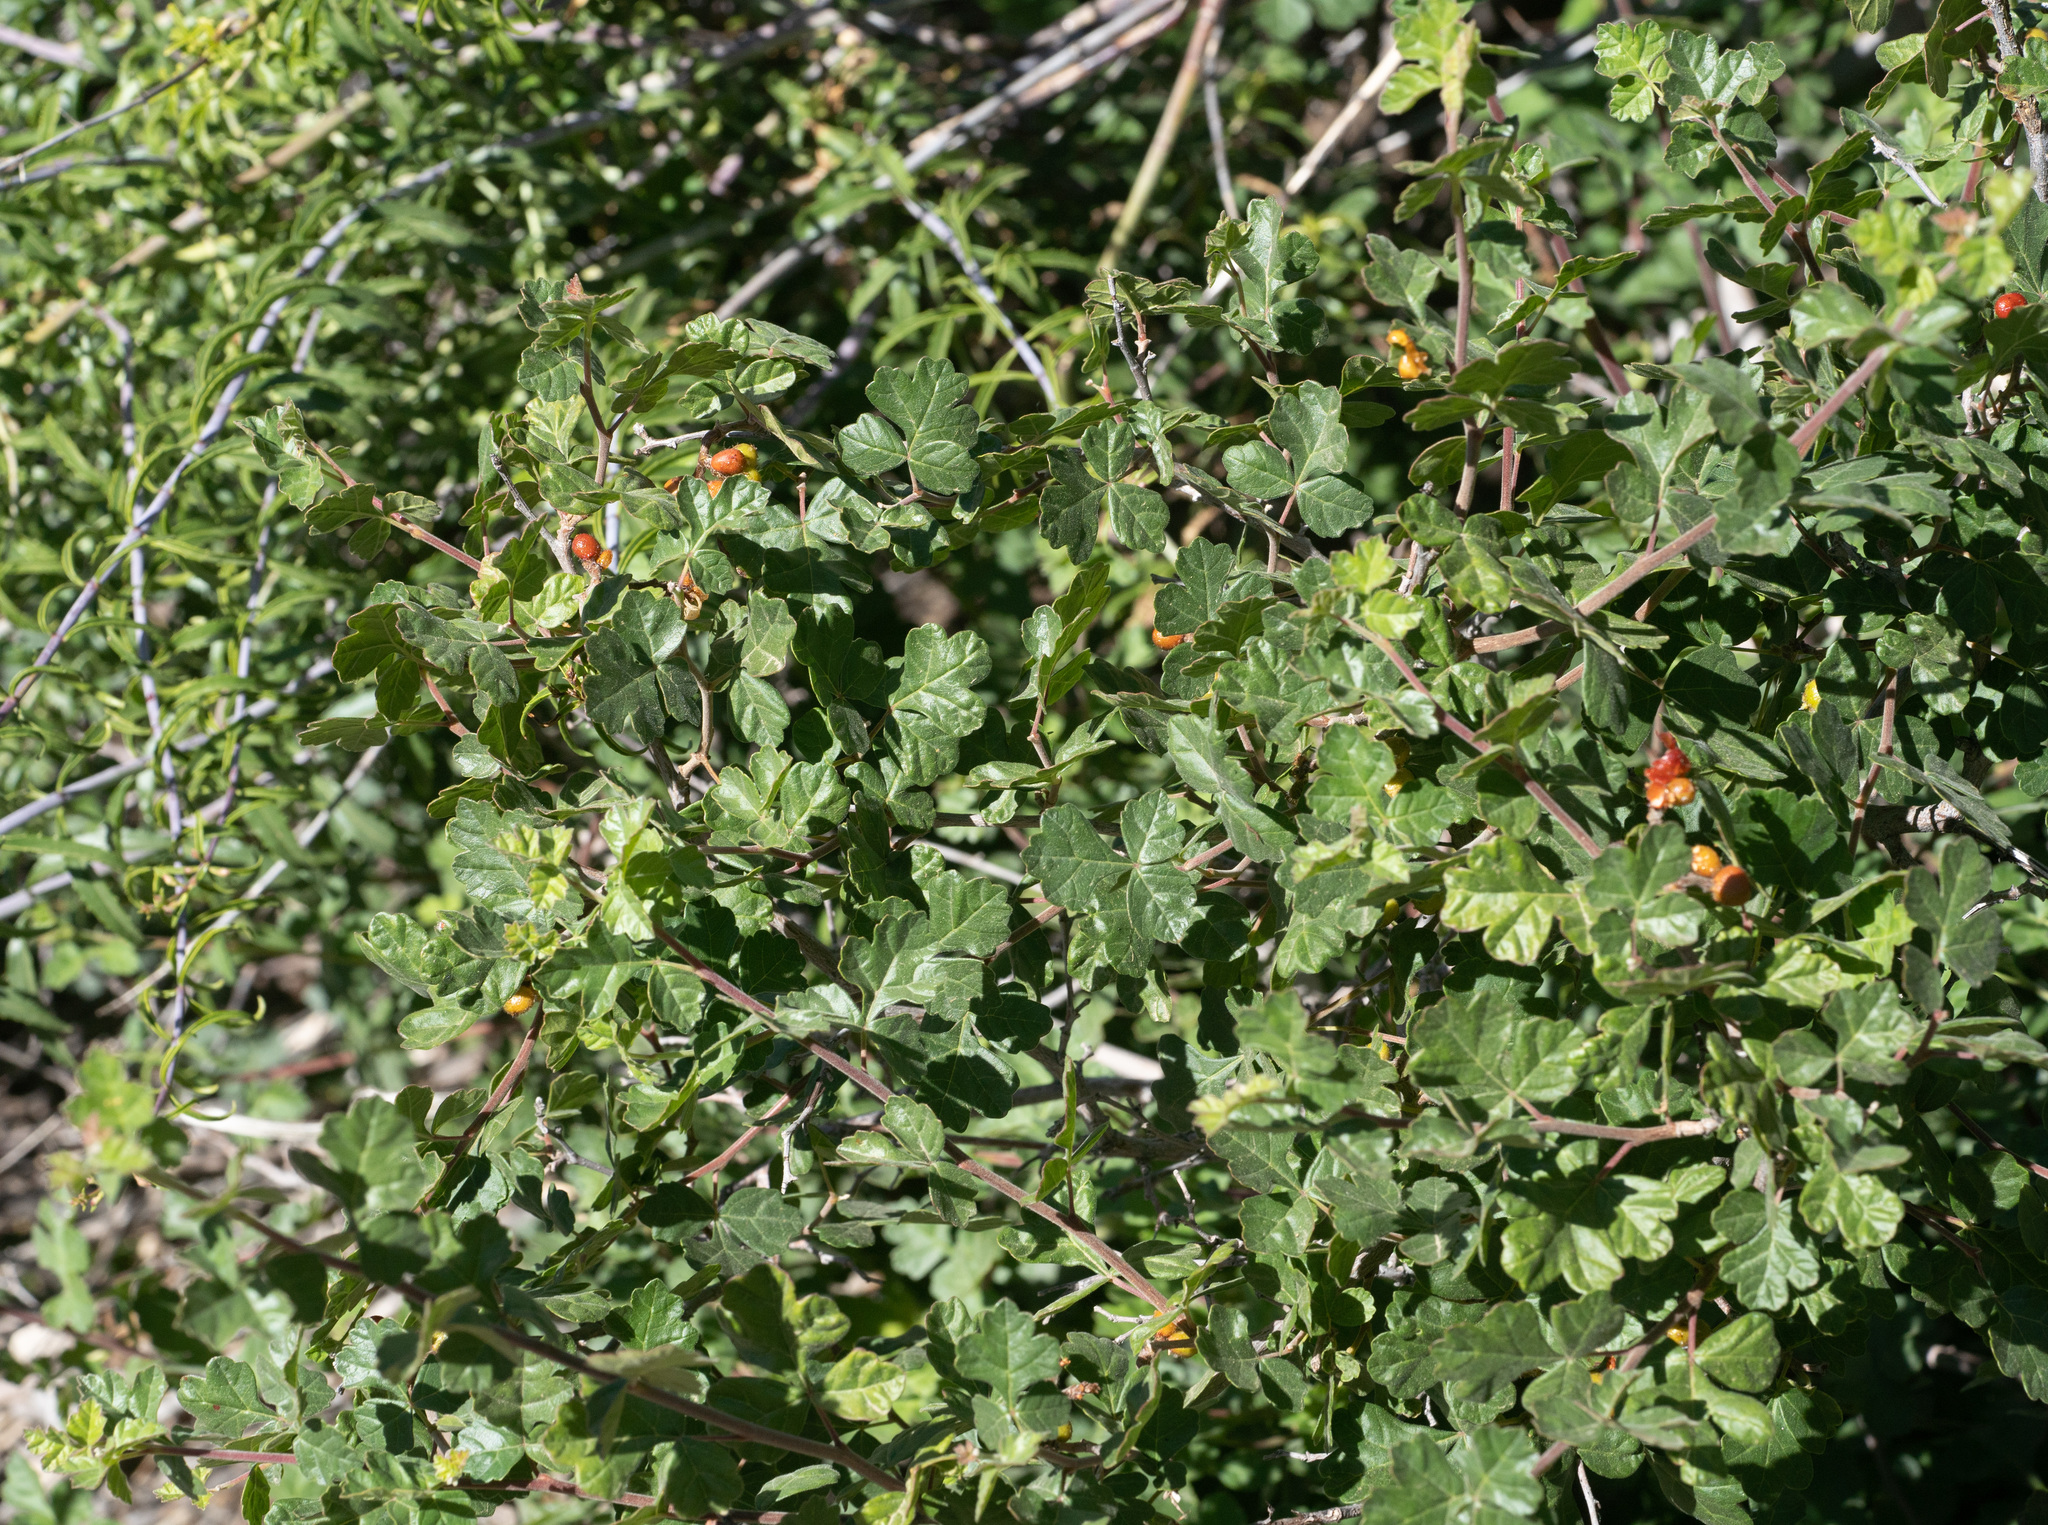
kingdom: Plantae
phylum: Tracheophyta
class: Magnoliopsida
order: Sapindales
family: Anacardiaceae
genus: Rhus
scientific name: Rhus aromatica
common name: Aromatic sumac
